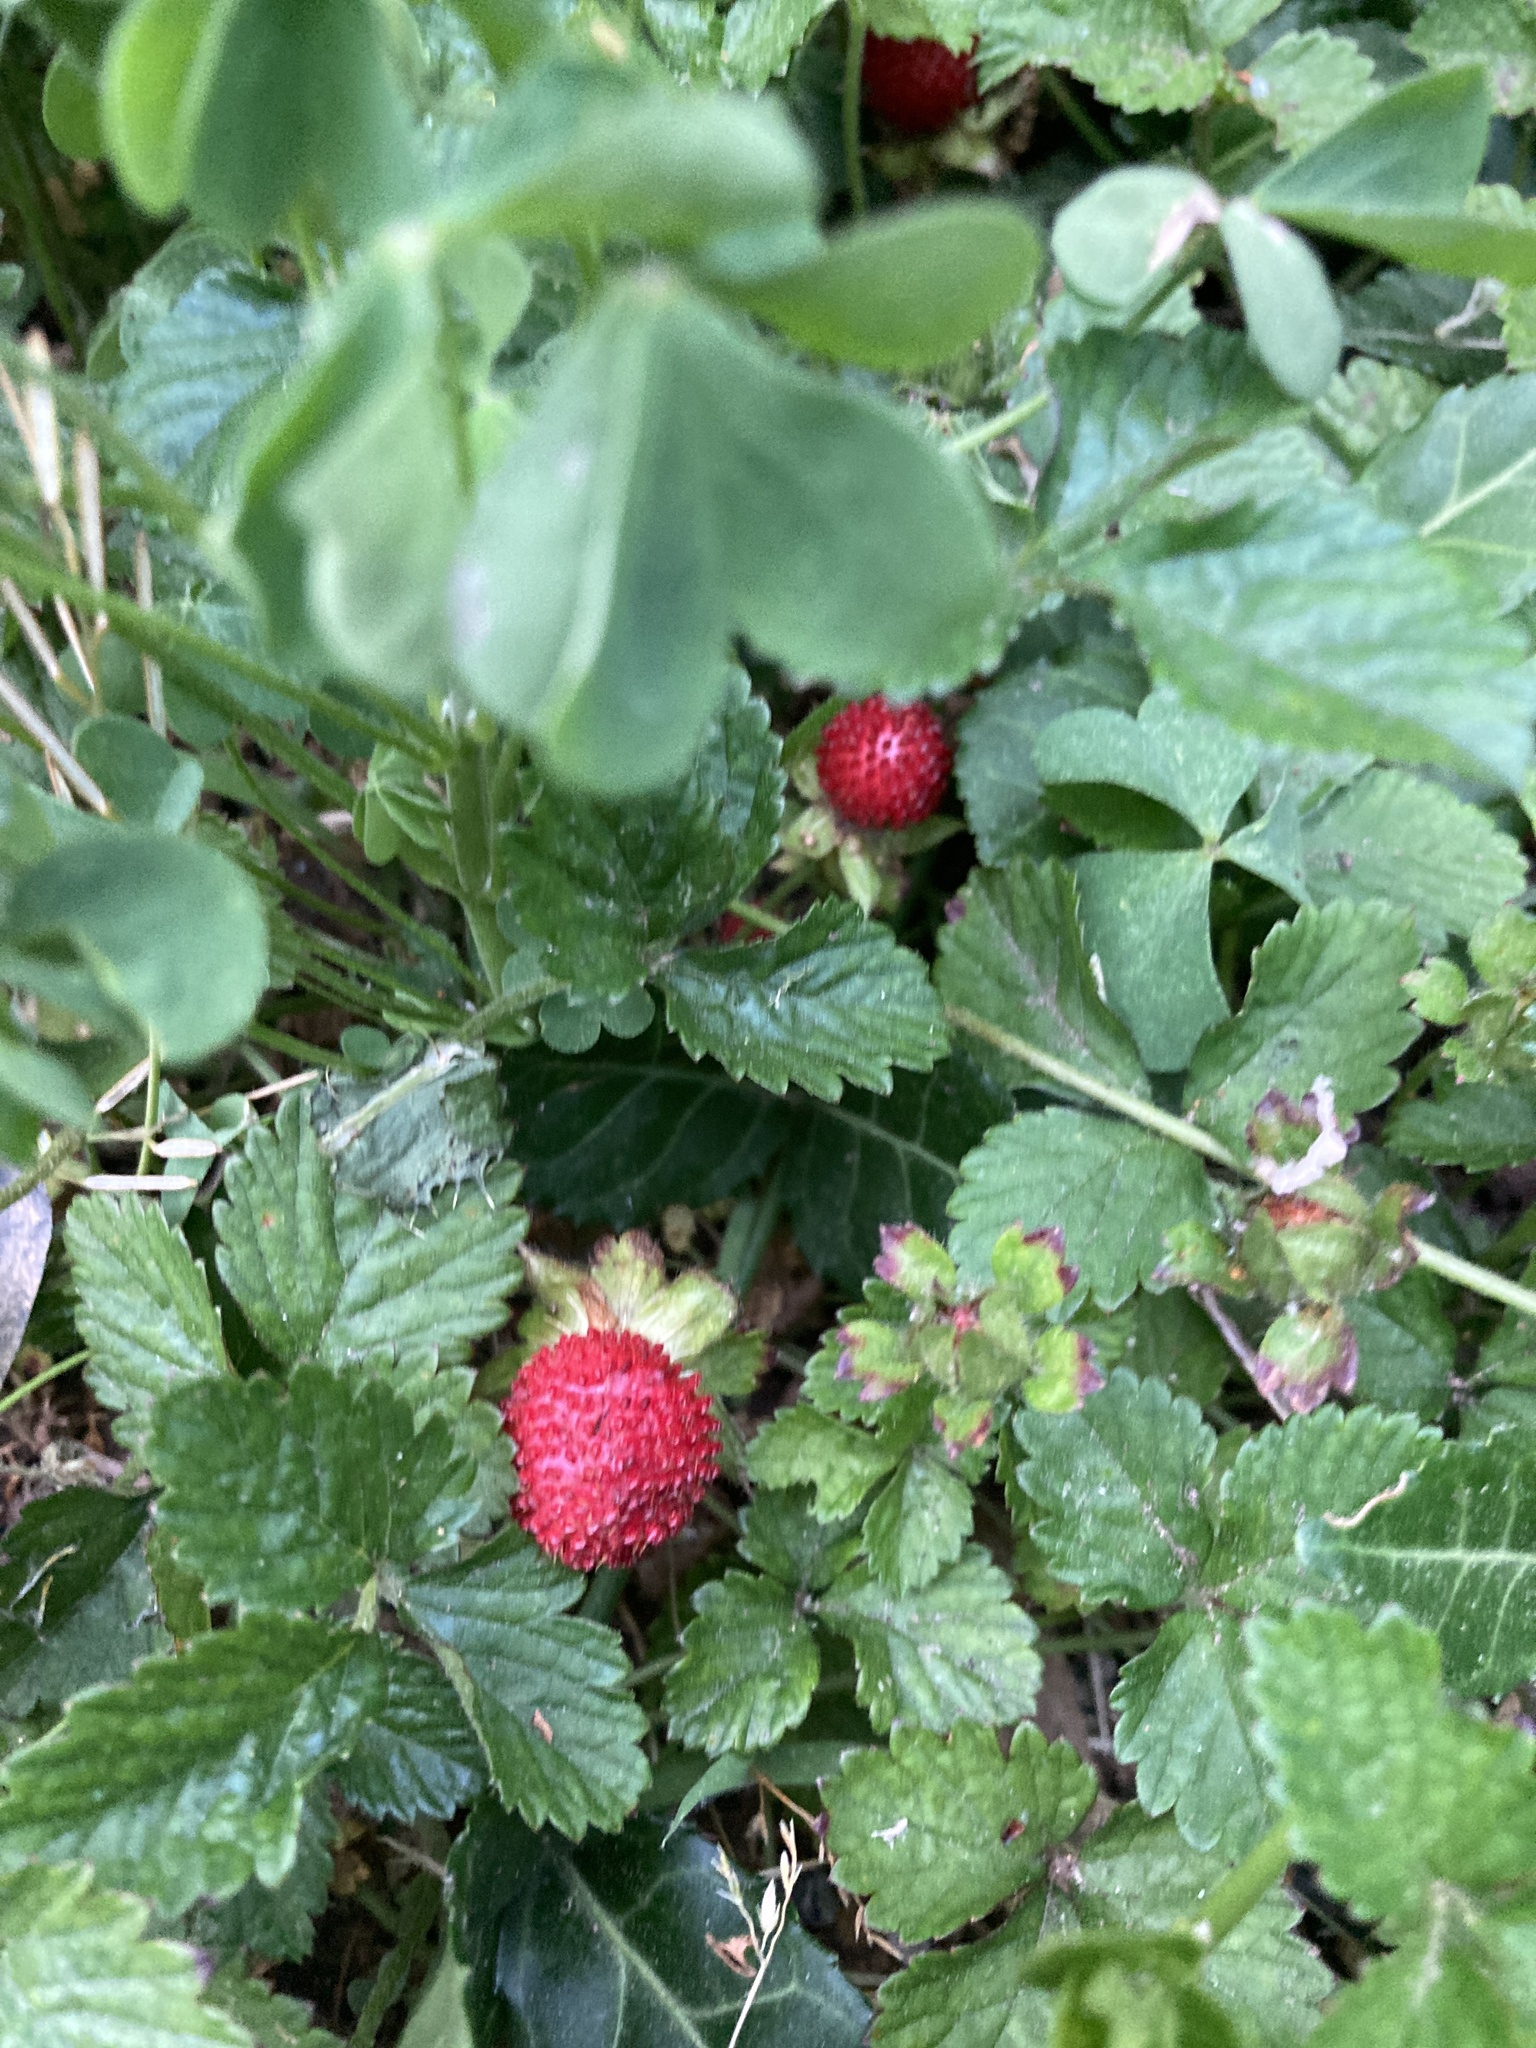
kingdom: Plantae
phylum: Tracheophyta
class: Magnoliopsida
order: Rosales
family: Rosaceae
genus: Potentilla
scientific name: Potentilla indica
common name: Yellow-flowered strawberry
